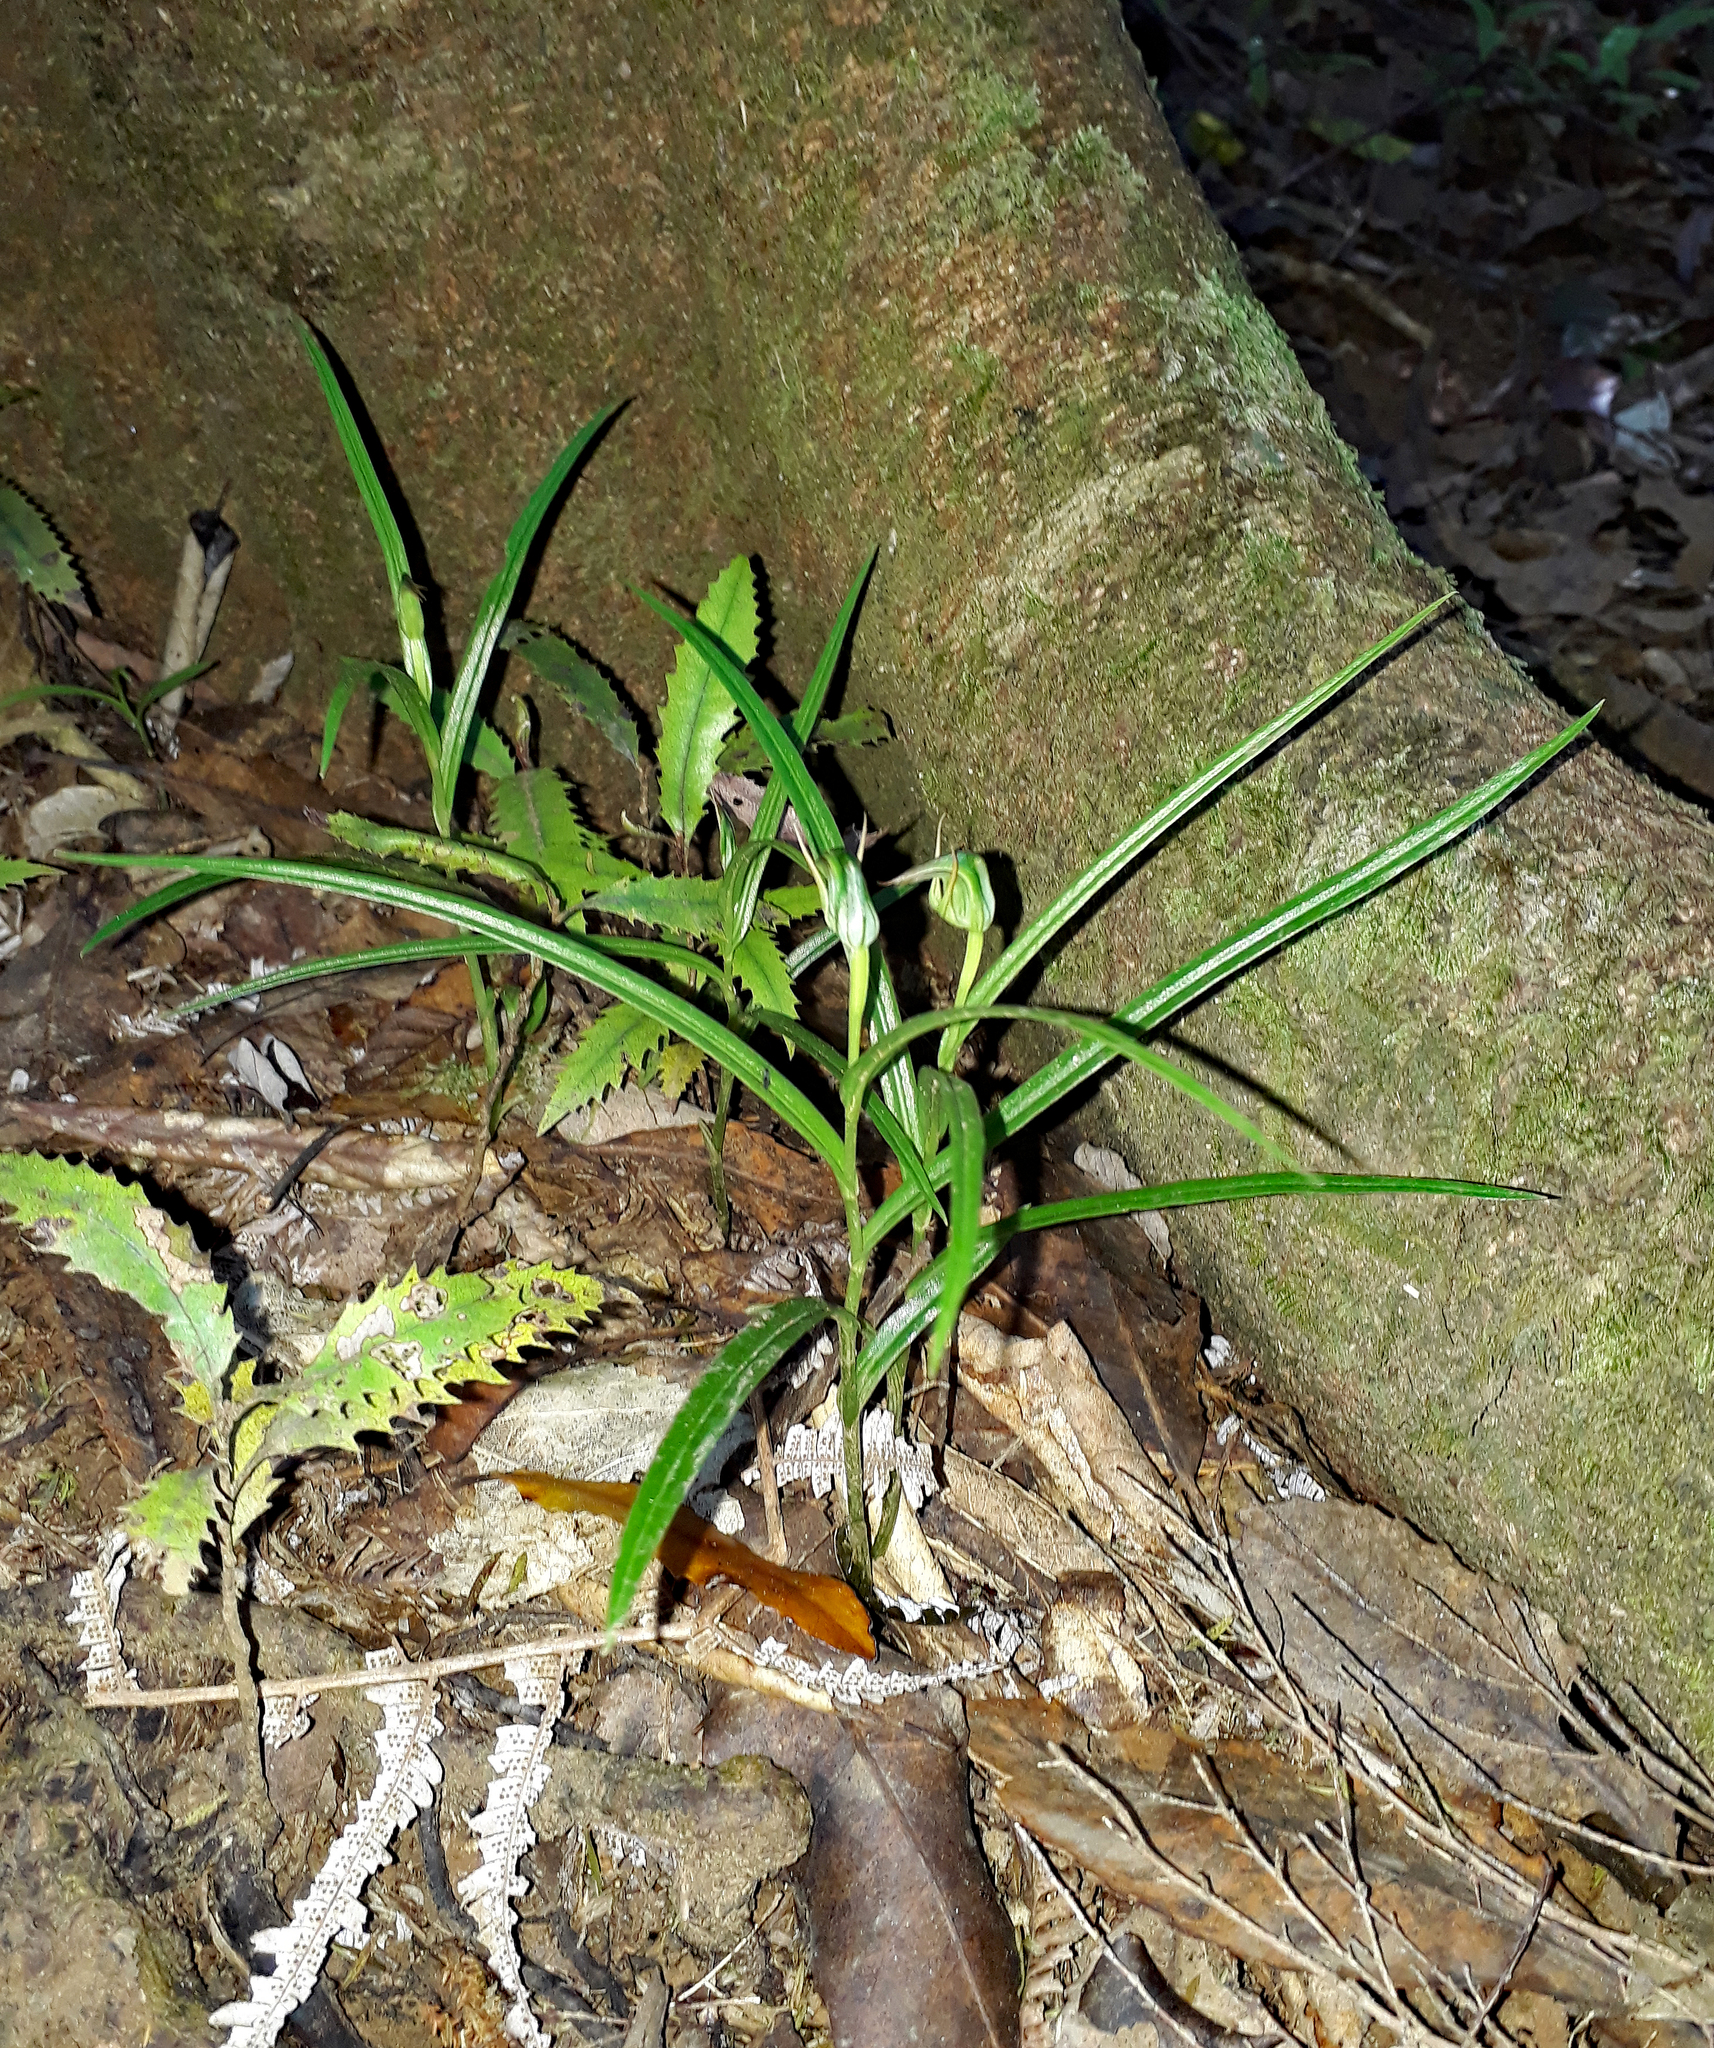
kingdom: Plantae
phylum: Tracheophyta
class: Liliopsida
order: Asparagales
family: Orchidaceae
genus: Pterostylis
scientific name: Pterostylis graminea
